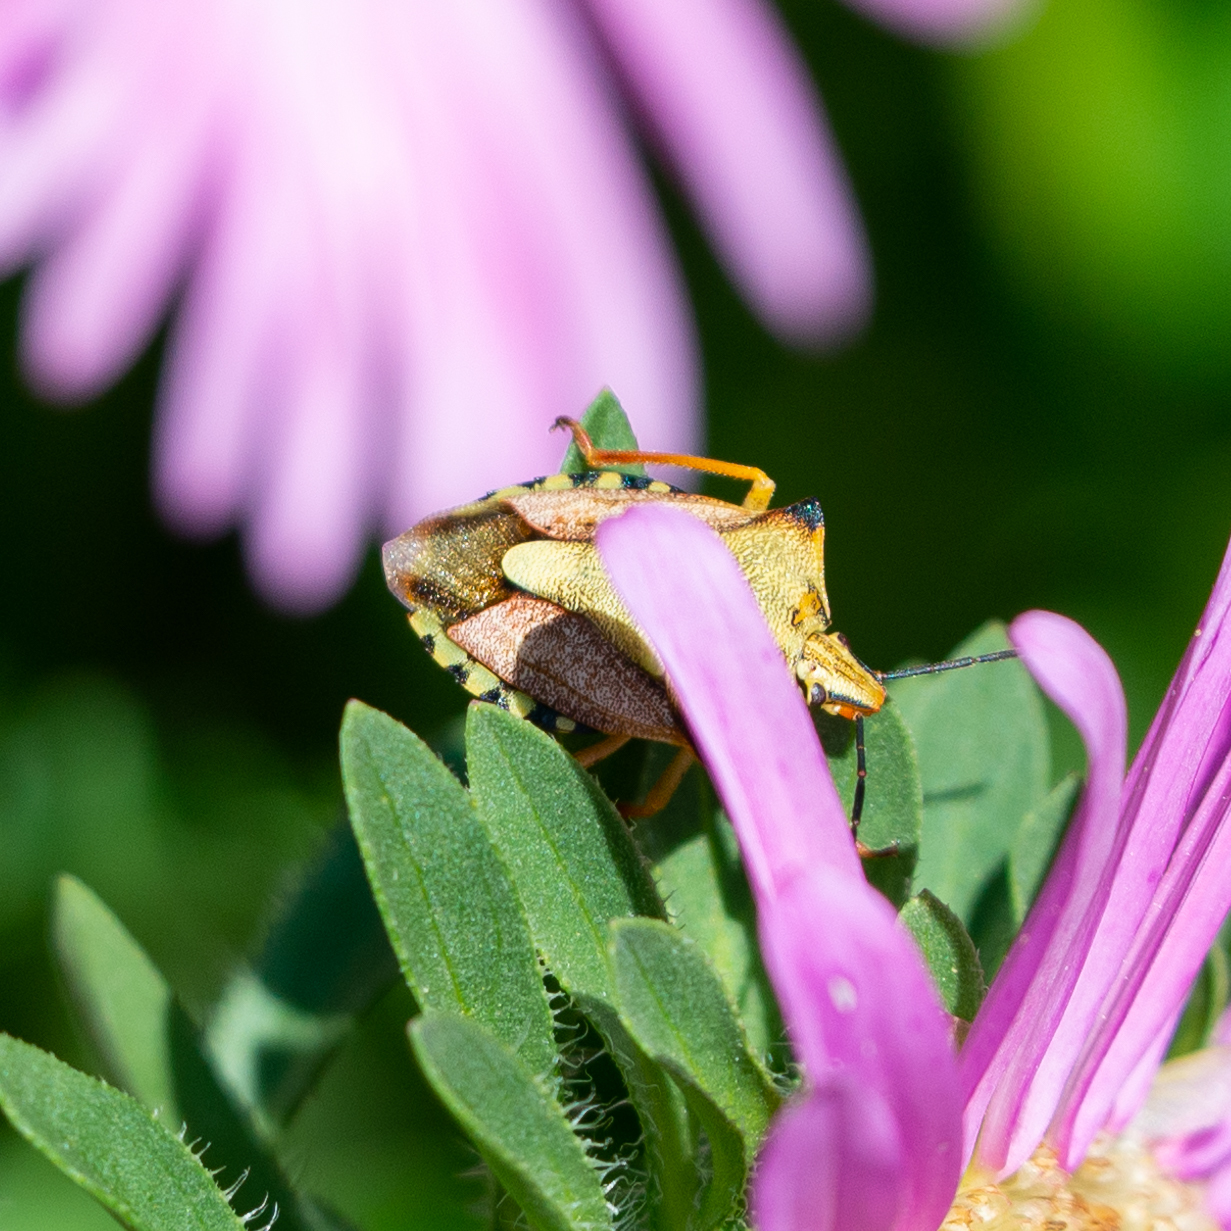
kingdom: Animalia
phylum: Arthropoda
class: Insecta
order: Hemiptera
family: Pentatomidae
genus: Carpocoris
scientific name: Carpocoris mediterraneus
